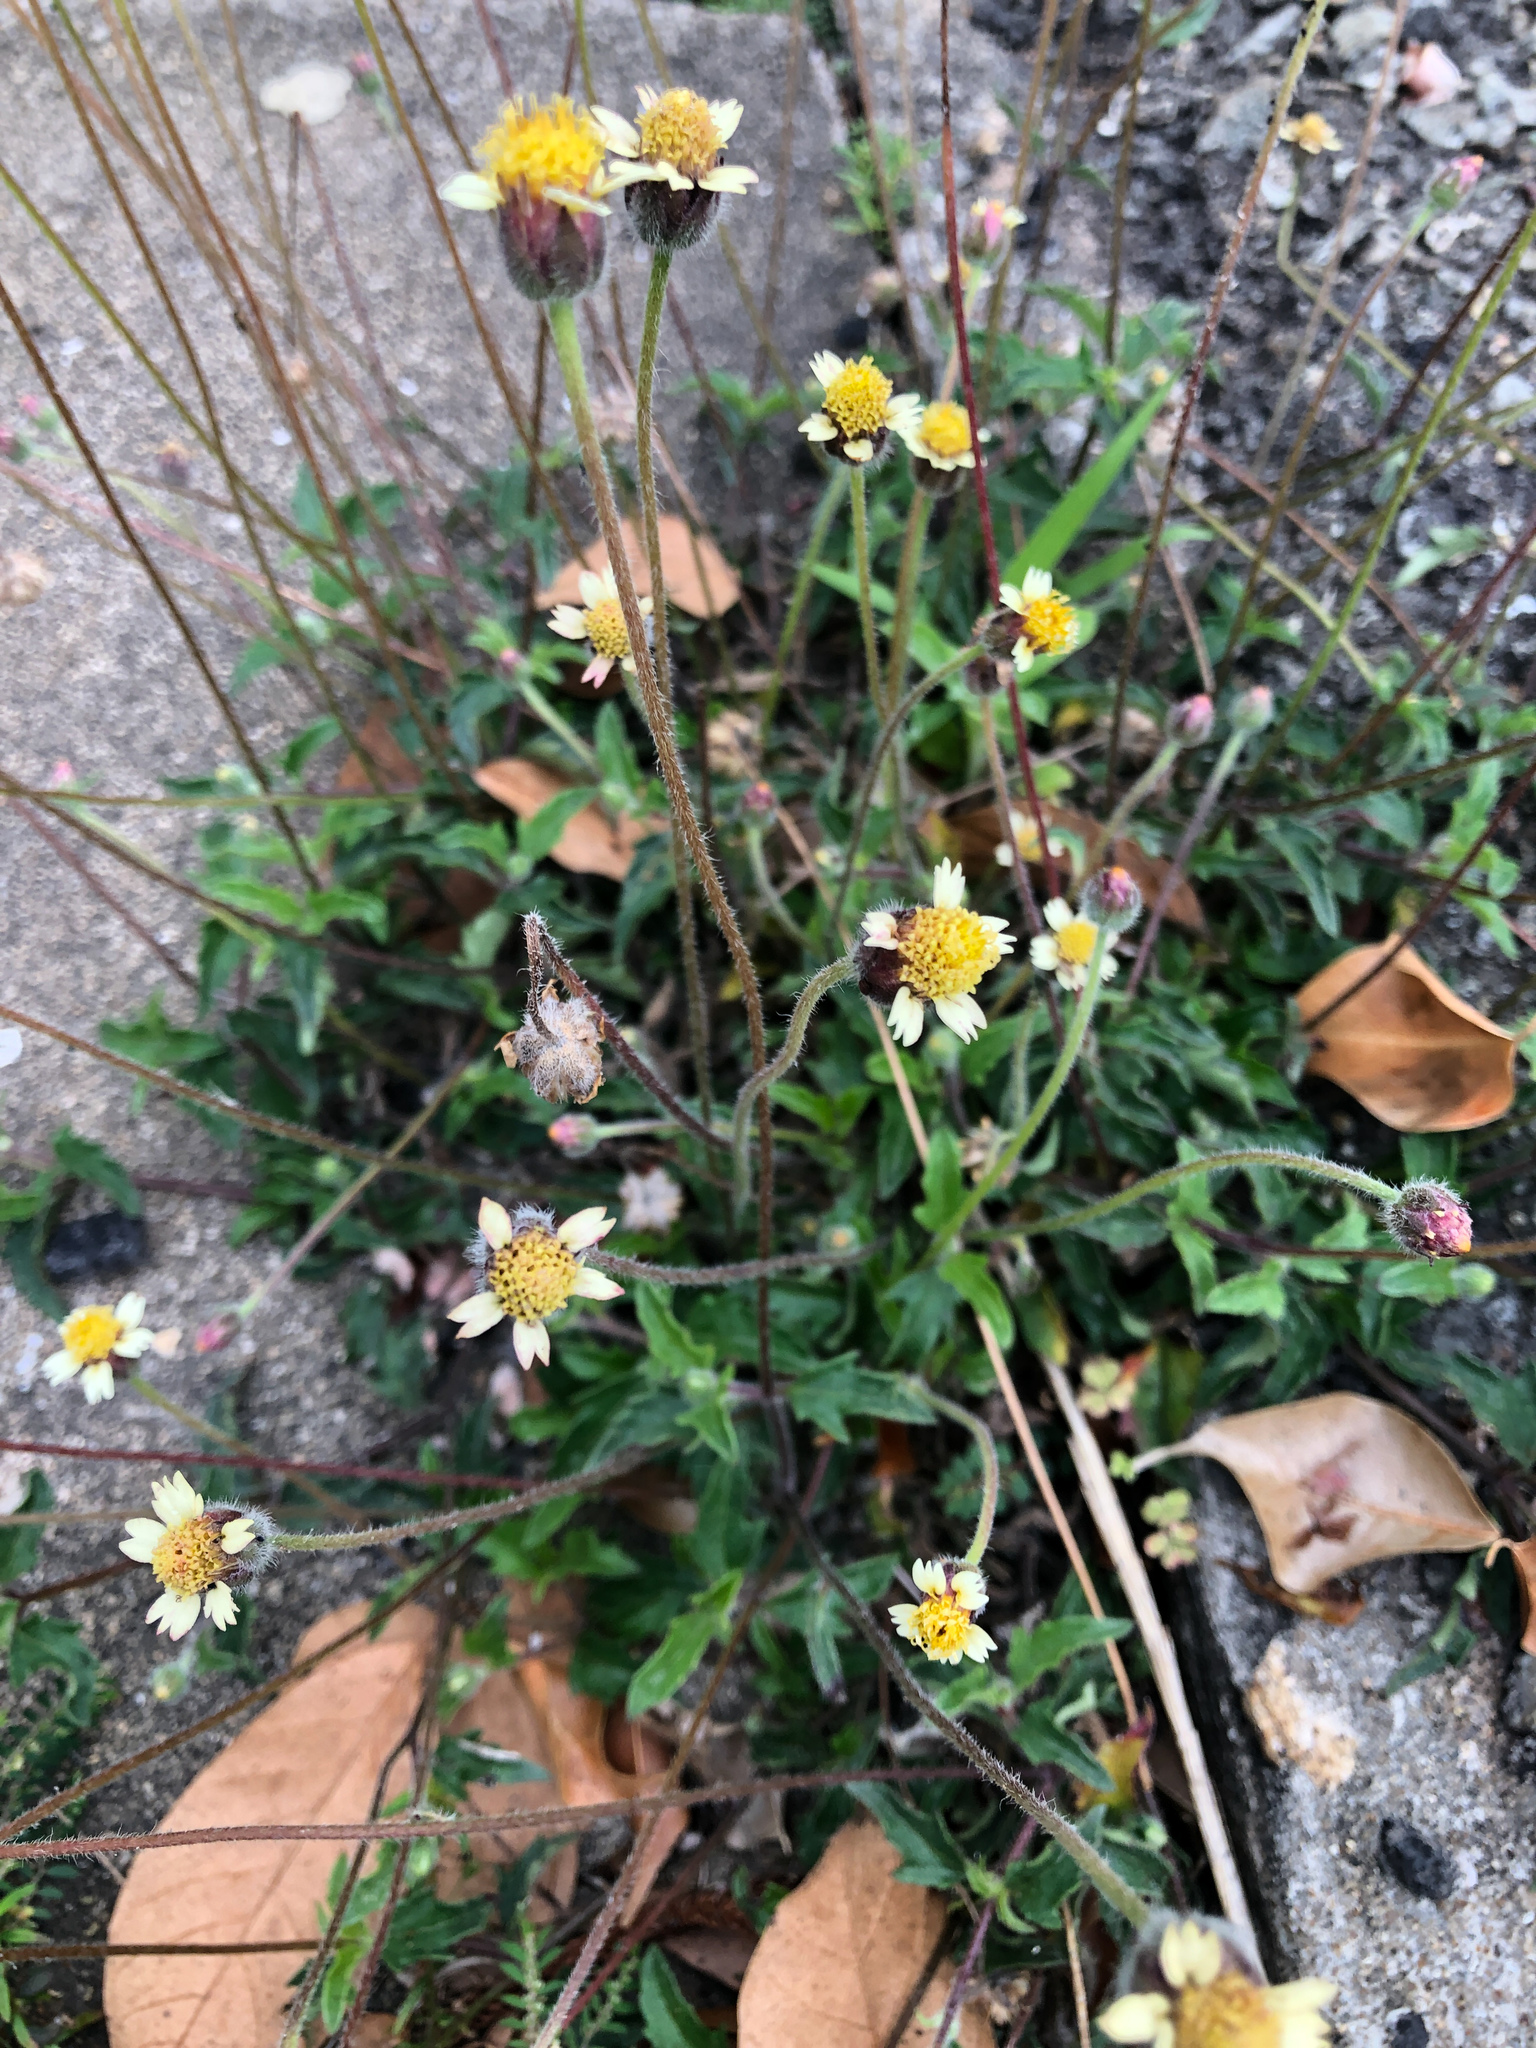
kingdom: Plantae
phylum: Tracheophyta
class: Magnoliopsida
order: Asterales
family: Asteraceae
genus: Tridax
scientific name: Tridax procumbens
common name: Coatbuttons
